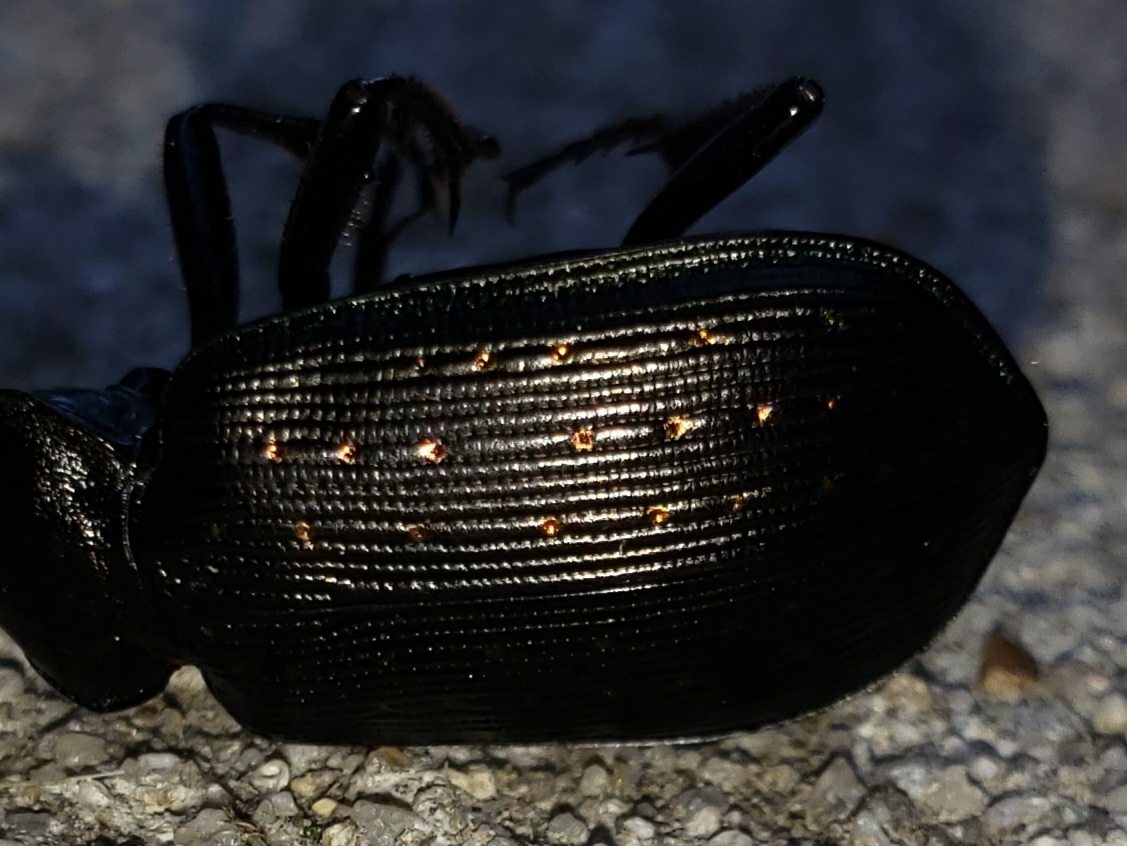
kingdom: Animalia
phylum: Arthropoda
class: Insecta
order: Coleoptera
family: Carabidae
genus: Calosoma
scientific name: Calosoma sayi
